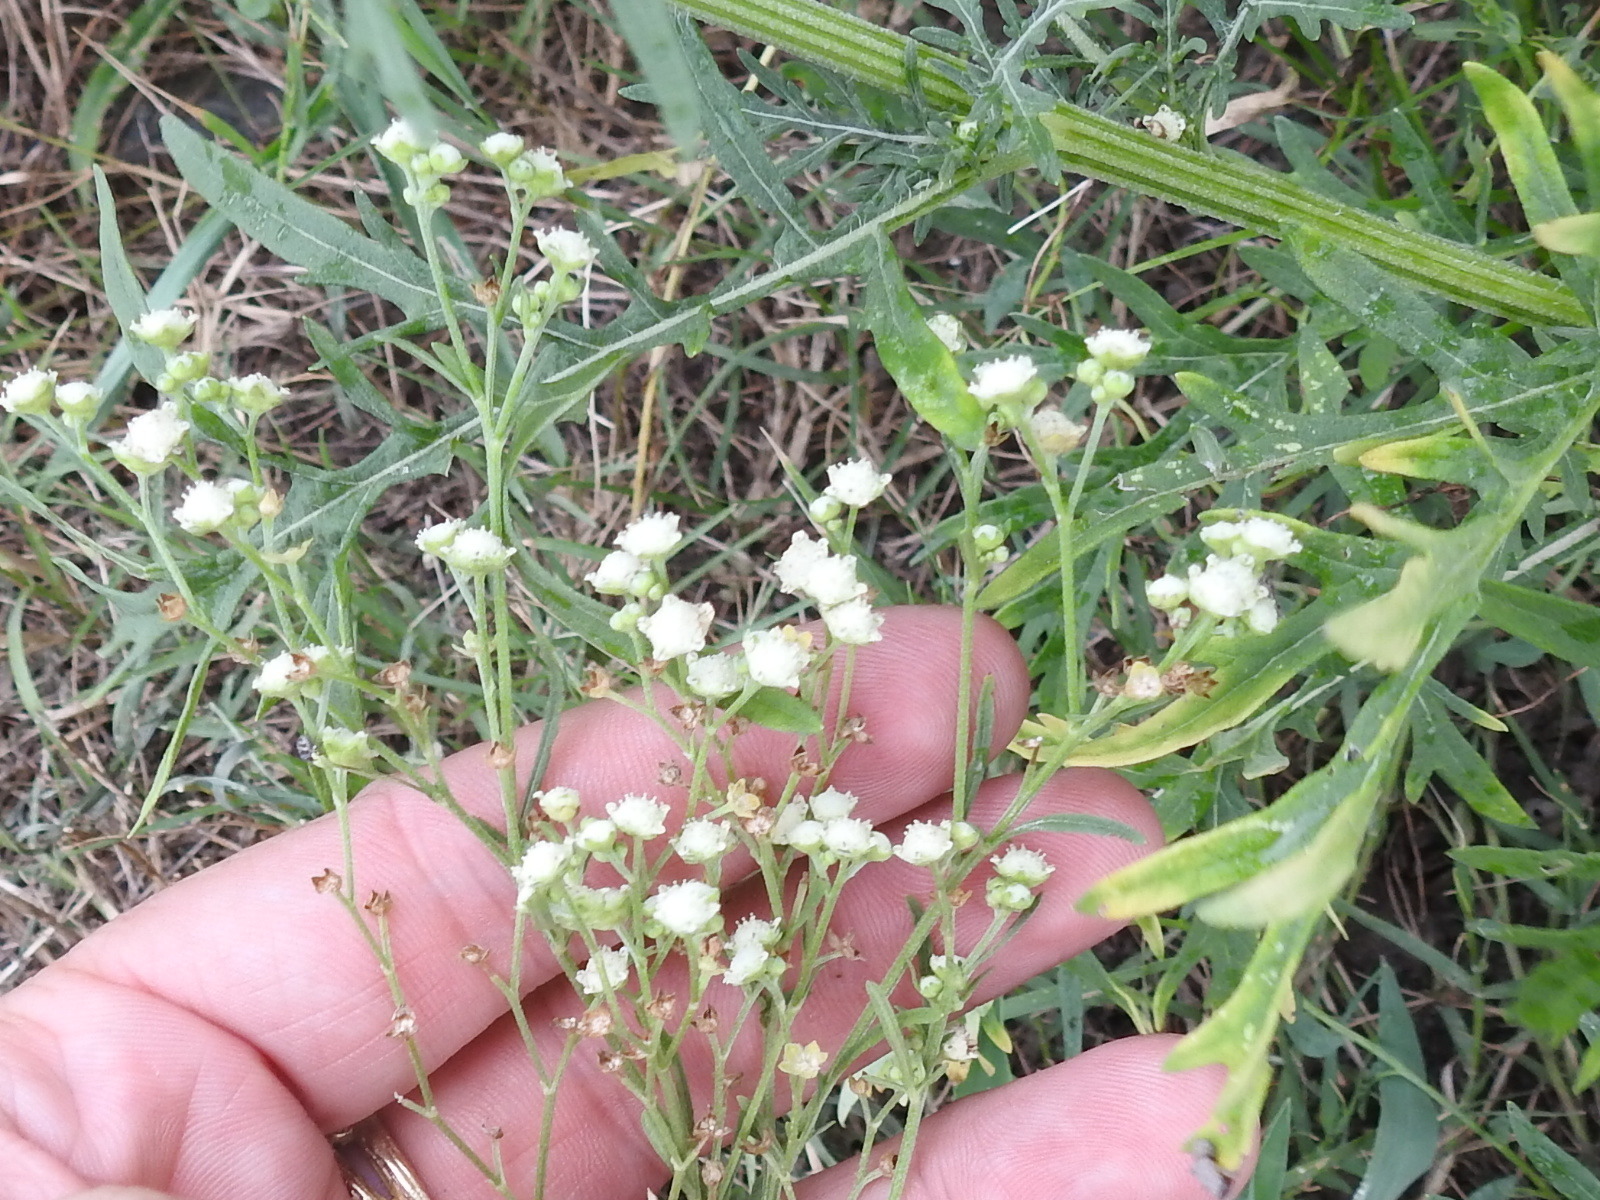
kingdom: Plantae
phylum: Tracheophyta
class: Magnoliopsida
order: Asterales
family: Asteraceae
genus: Parthenium
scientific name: Parthenium hysterophorus
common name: Santa maria feverfew
